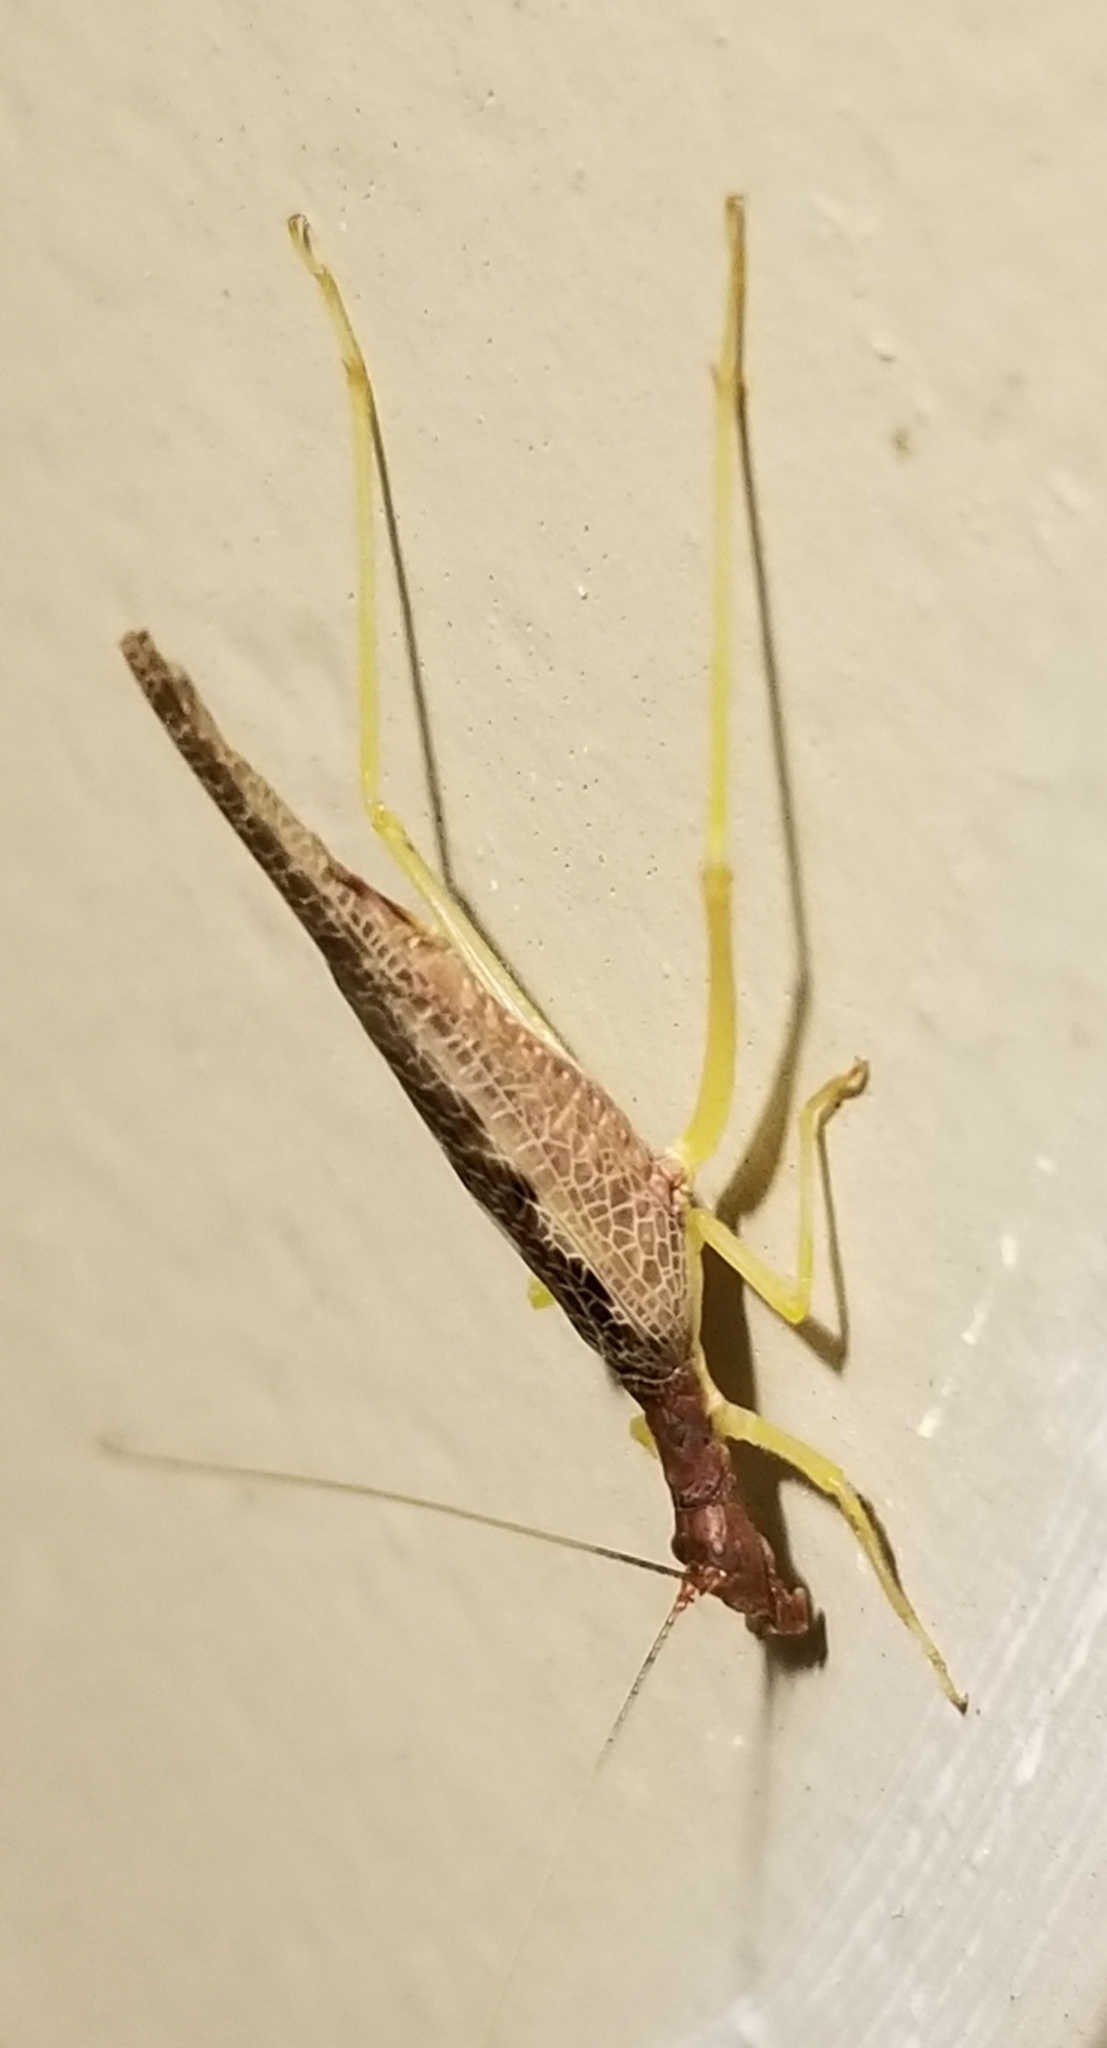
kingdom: Animalia
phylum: Arthropoda
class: Insecta
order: Orthoptera
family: Gryllidae
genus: Neoxabea
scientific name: Neoxabea bipunctata
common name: Two-spotted tree cricket
